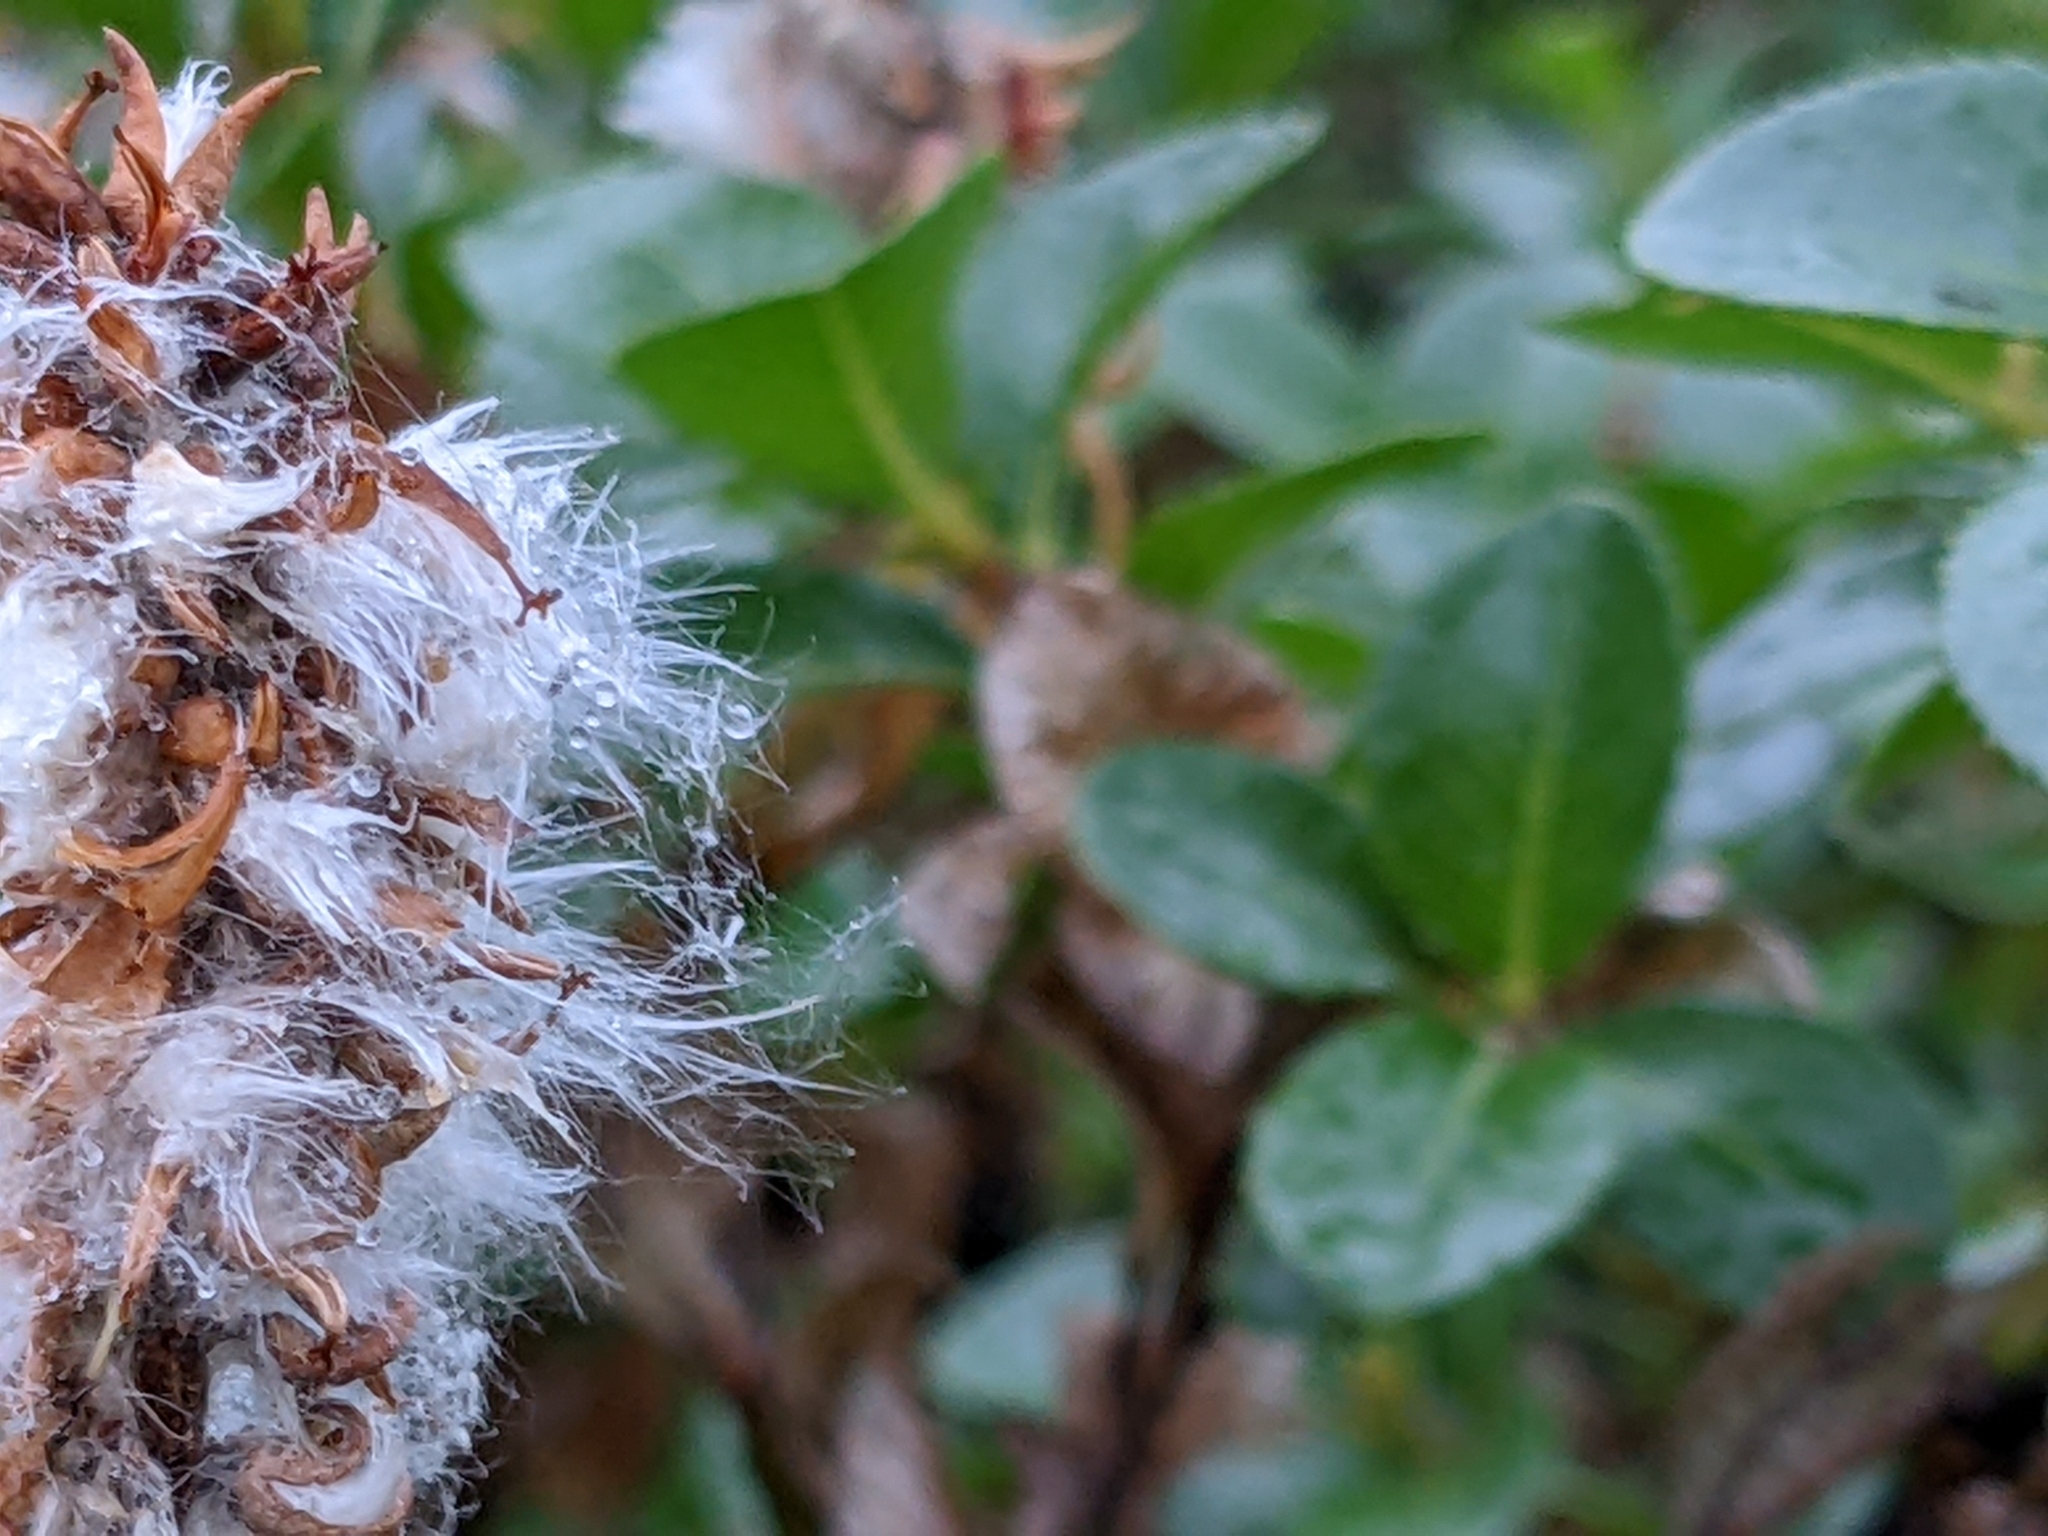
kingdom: Plantae
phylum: Tracheophyta
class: Magnoliopsida
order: Malpighiales
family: Salicaceae
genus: Salix
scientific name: Salix myrsinites
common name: Myrtle willow
